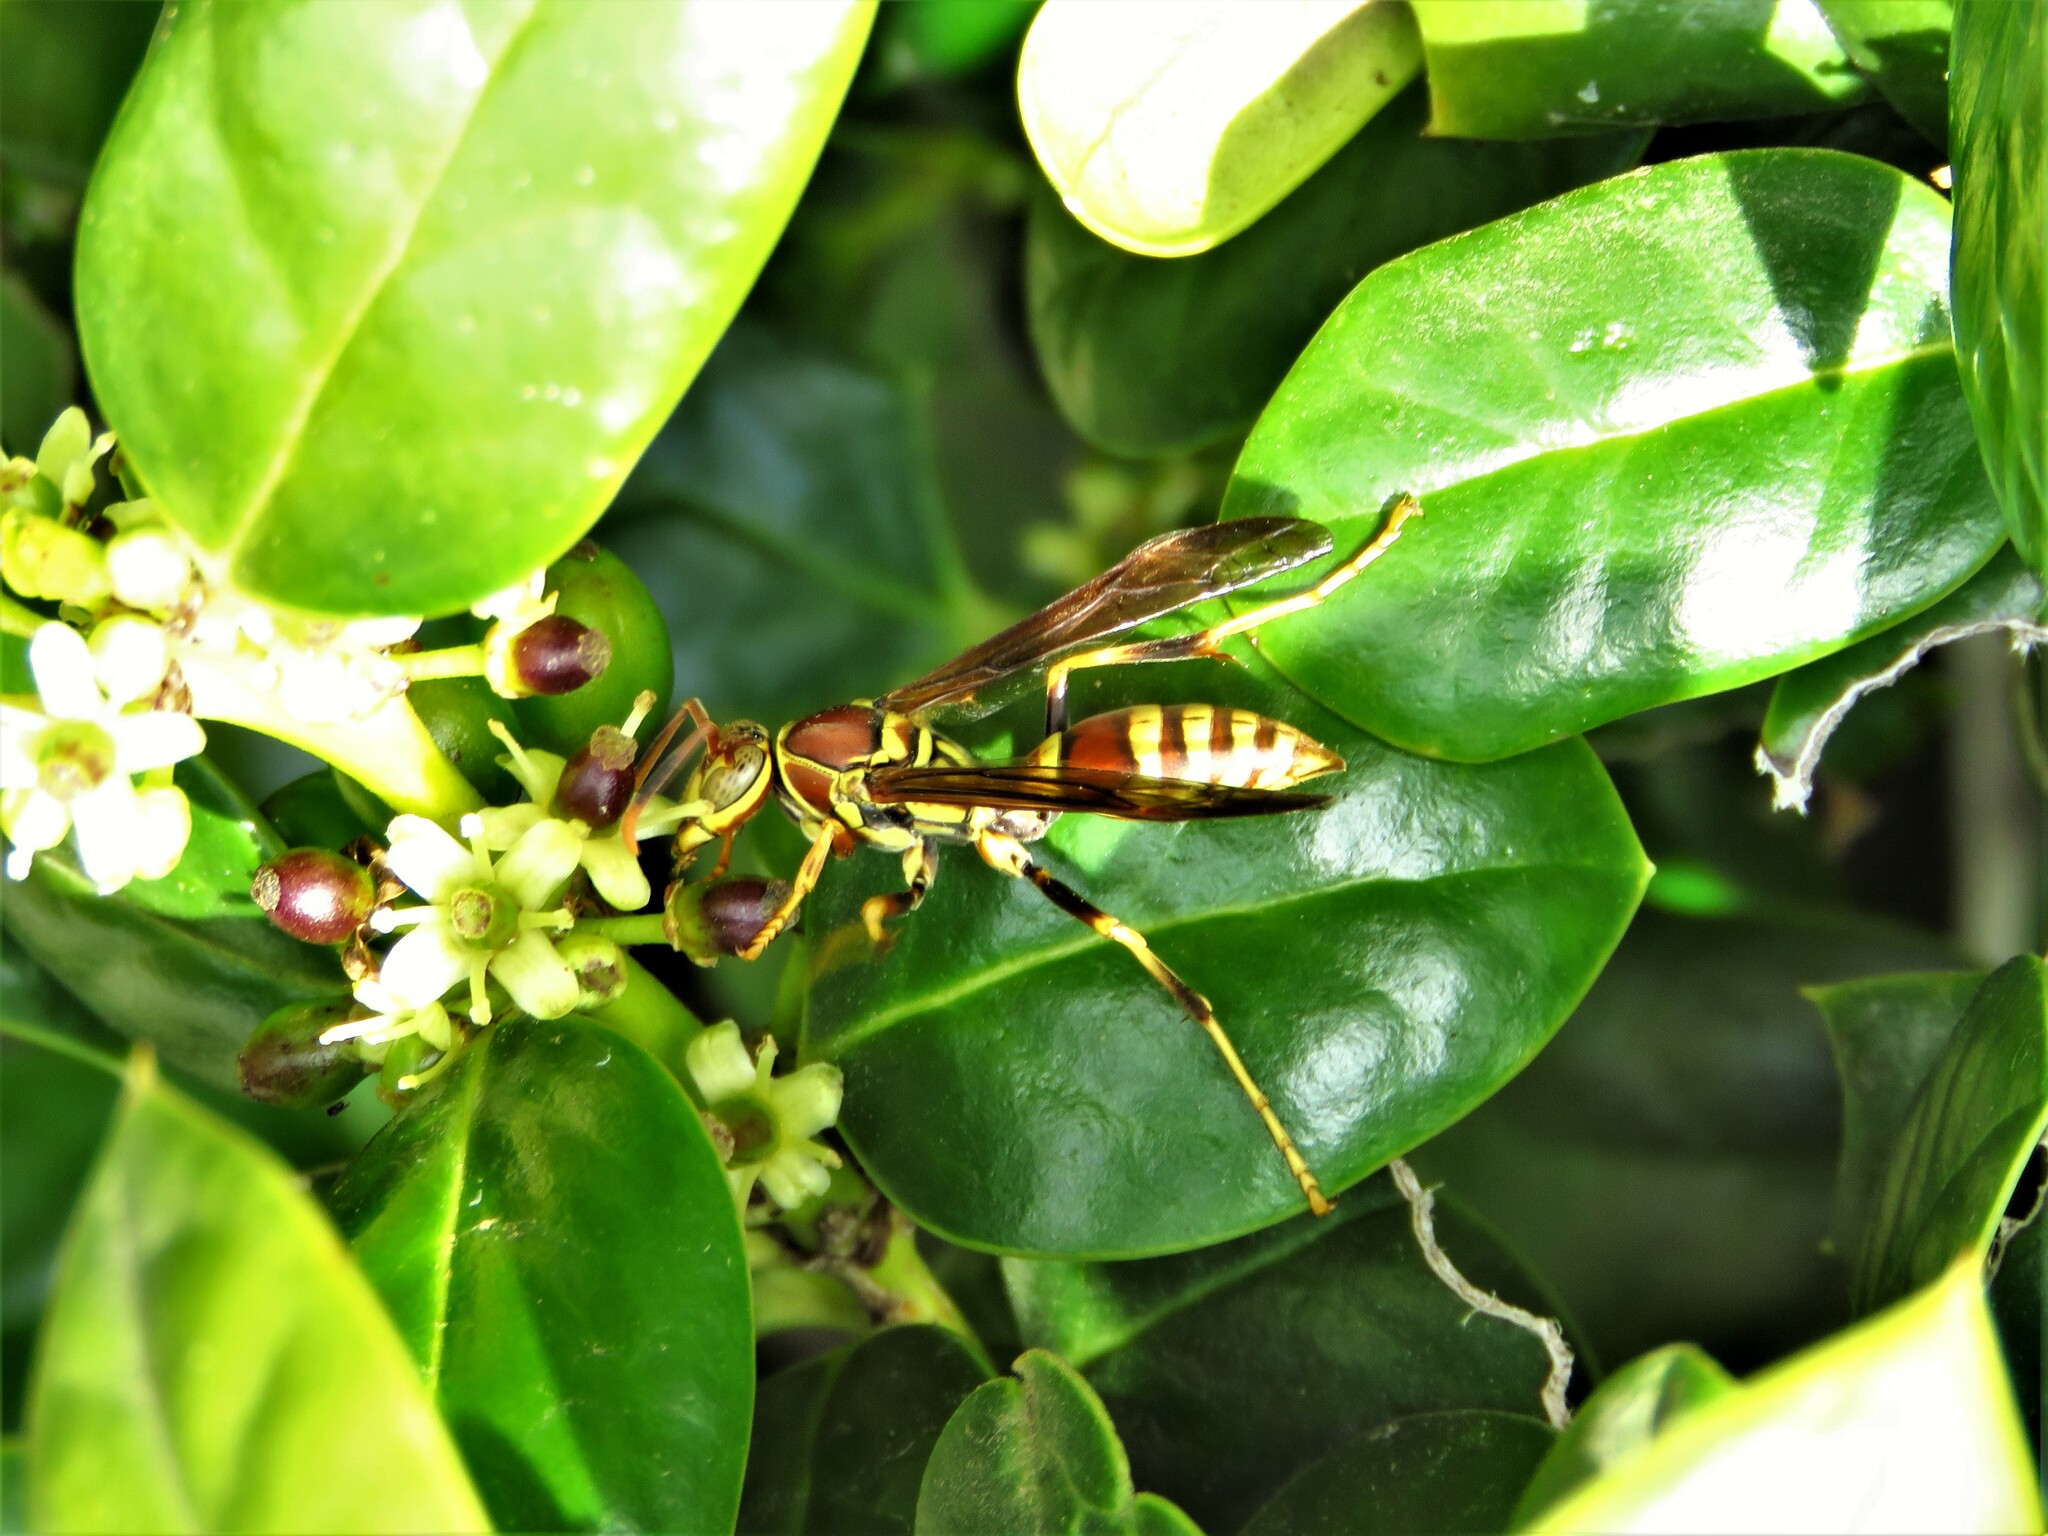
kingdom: Animalia
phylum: Arthropoda
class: Insecta
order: Hymenoptera
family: Eumenidae
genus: Polistes
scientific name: Polistes exclamans
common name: Paper wasp
